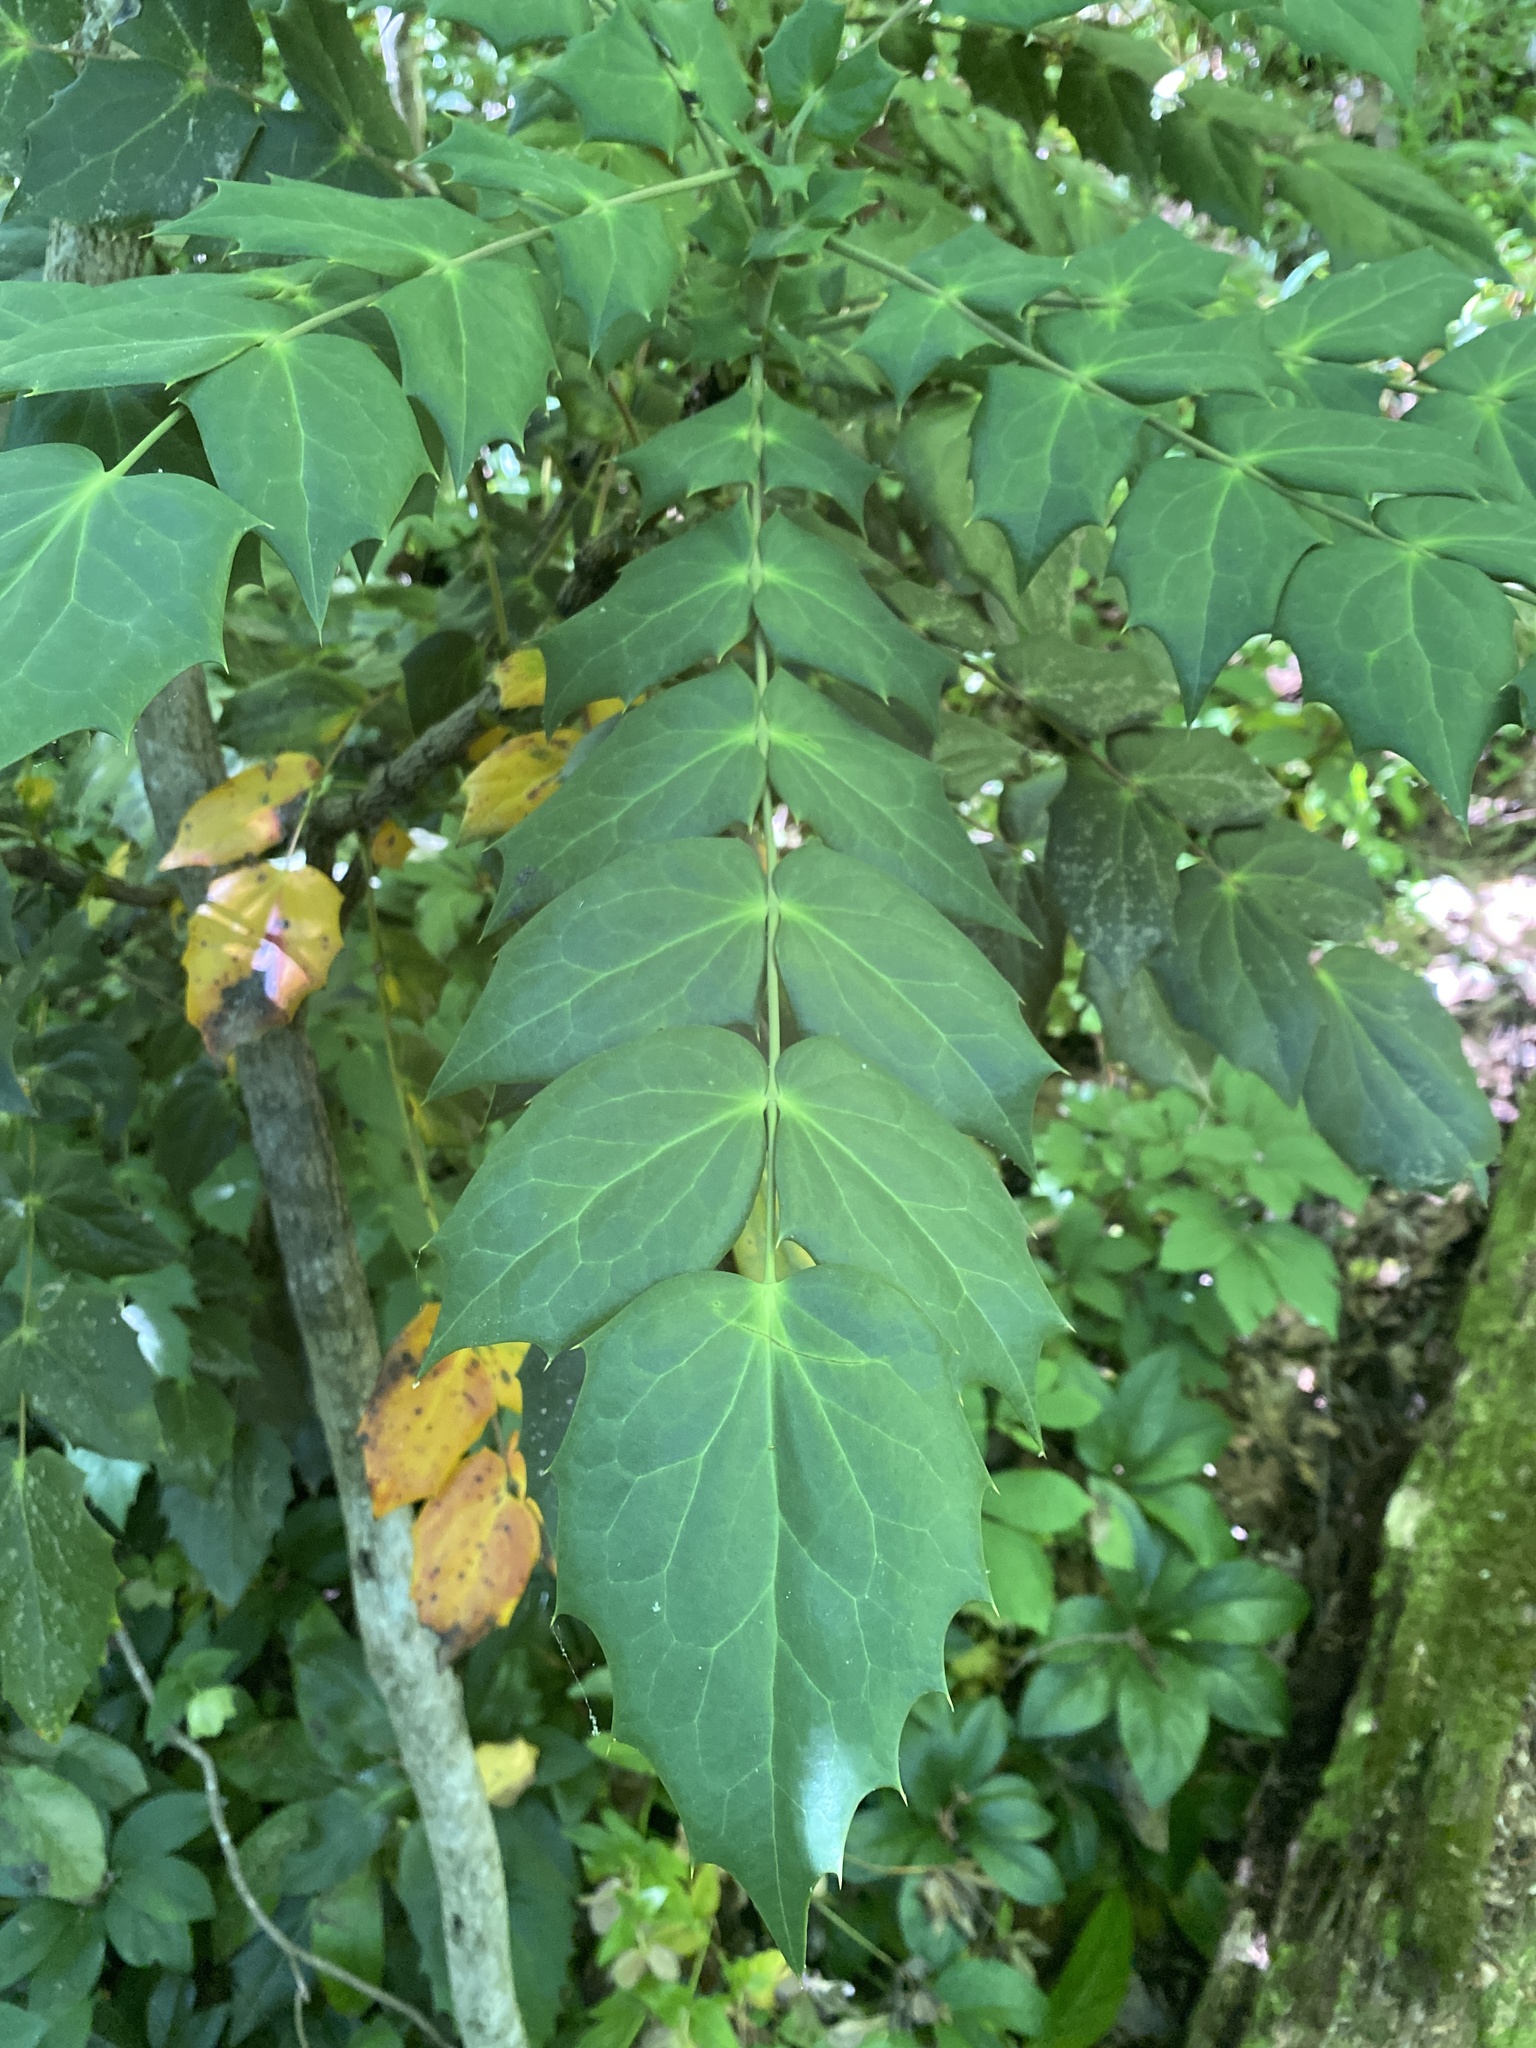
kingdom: Plantae
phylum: Tracheophyta
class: Magnoliopsida
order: Ranunculales
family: Berberidaceae
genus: Mahonia
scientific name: Mahonia bealei
